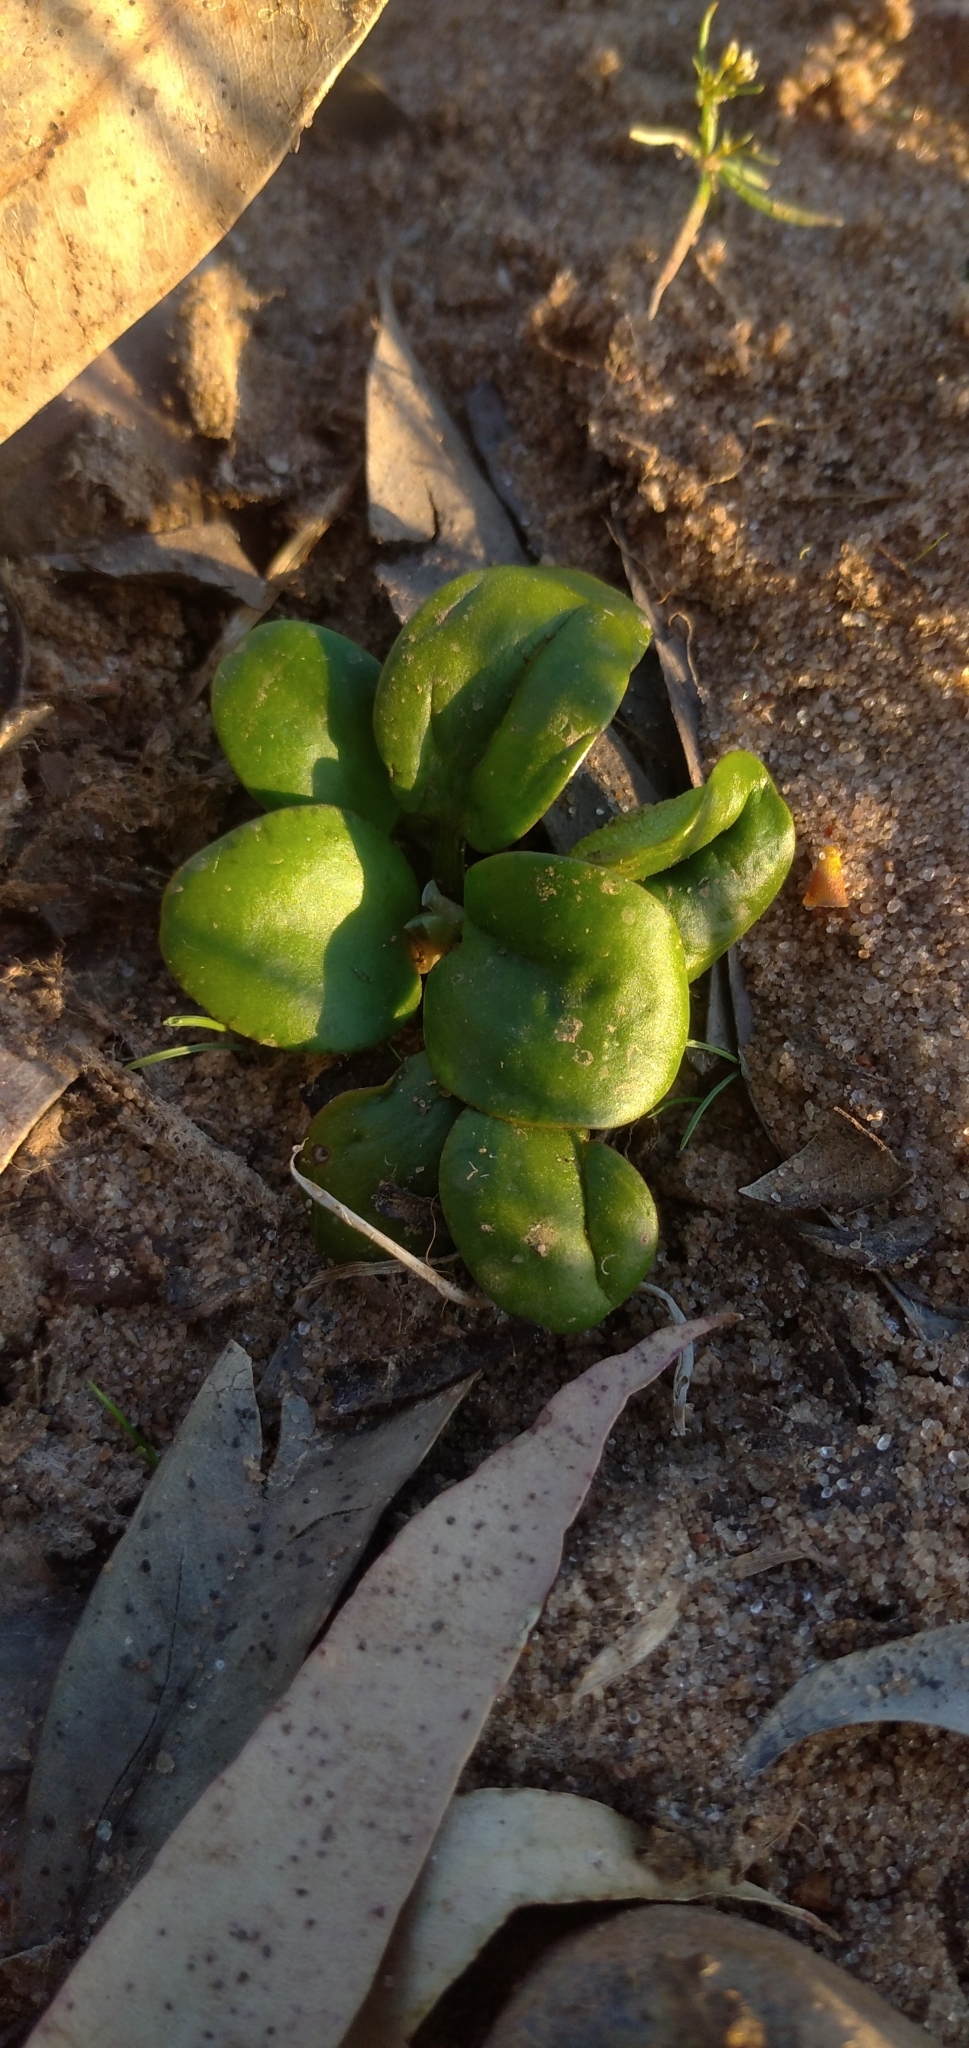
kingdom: Plantae
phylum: Tracheophyta
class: Liliopsida
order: Alismatales
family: Hydrocharitaceae
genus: Hydrocharis
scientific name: Hydrocharis laevigata
